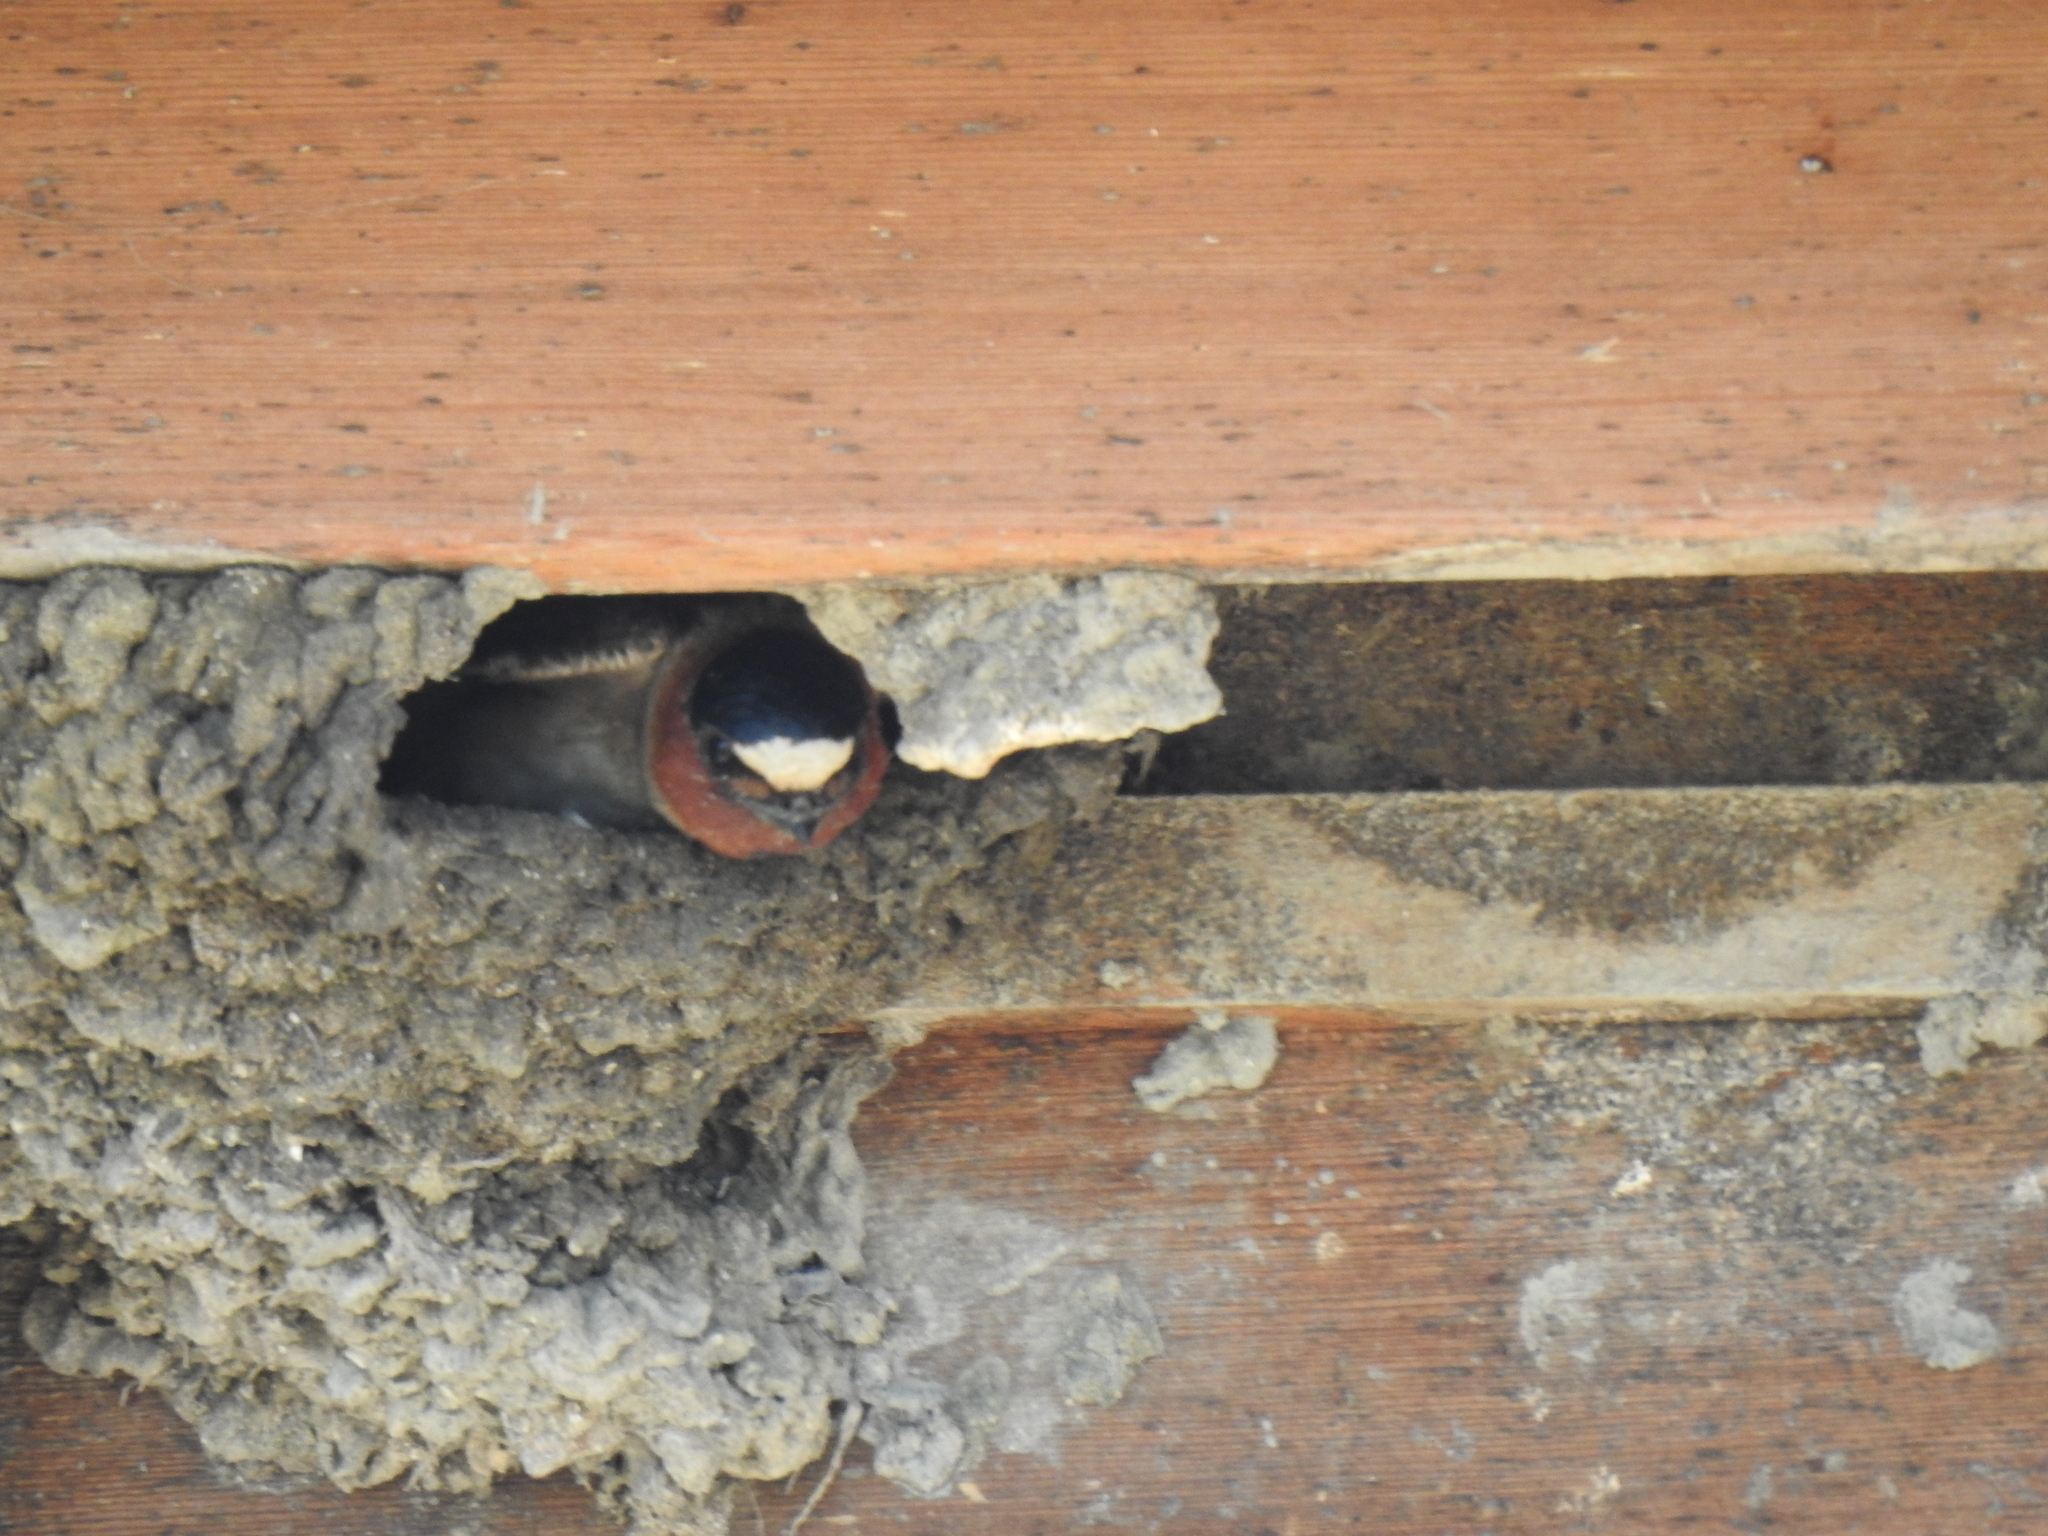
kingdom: Animalia
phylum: Chordata
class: Aves
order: Passeriformes
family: Hirundinidae
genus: Petrochelidon
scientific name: Petrochelidon pyrrhonota
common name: American cliff swallow
